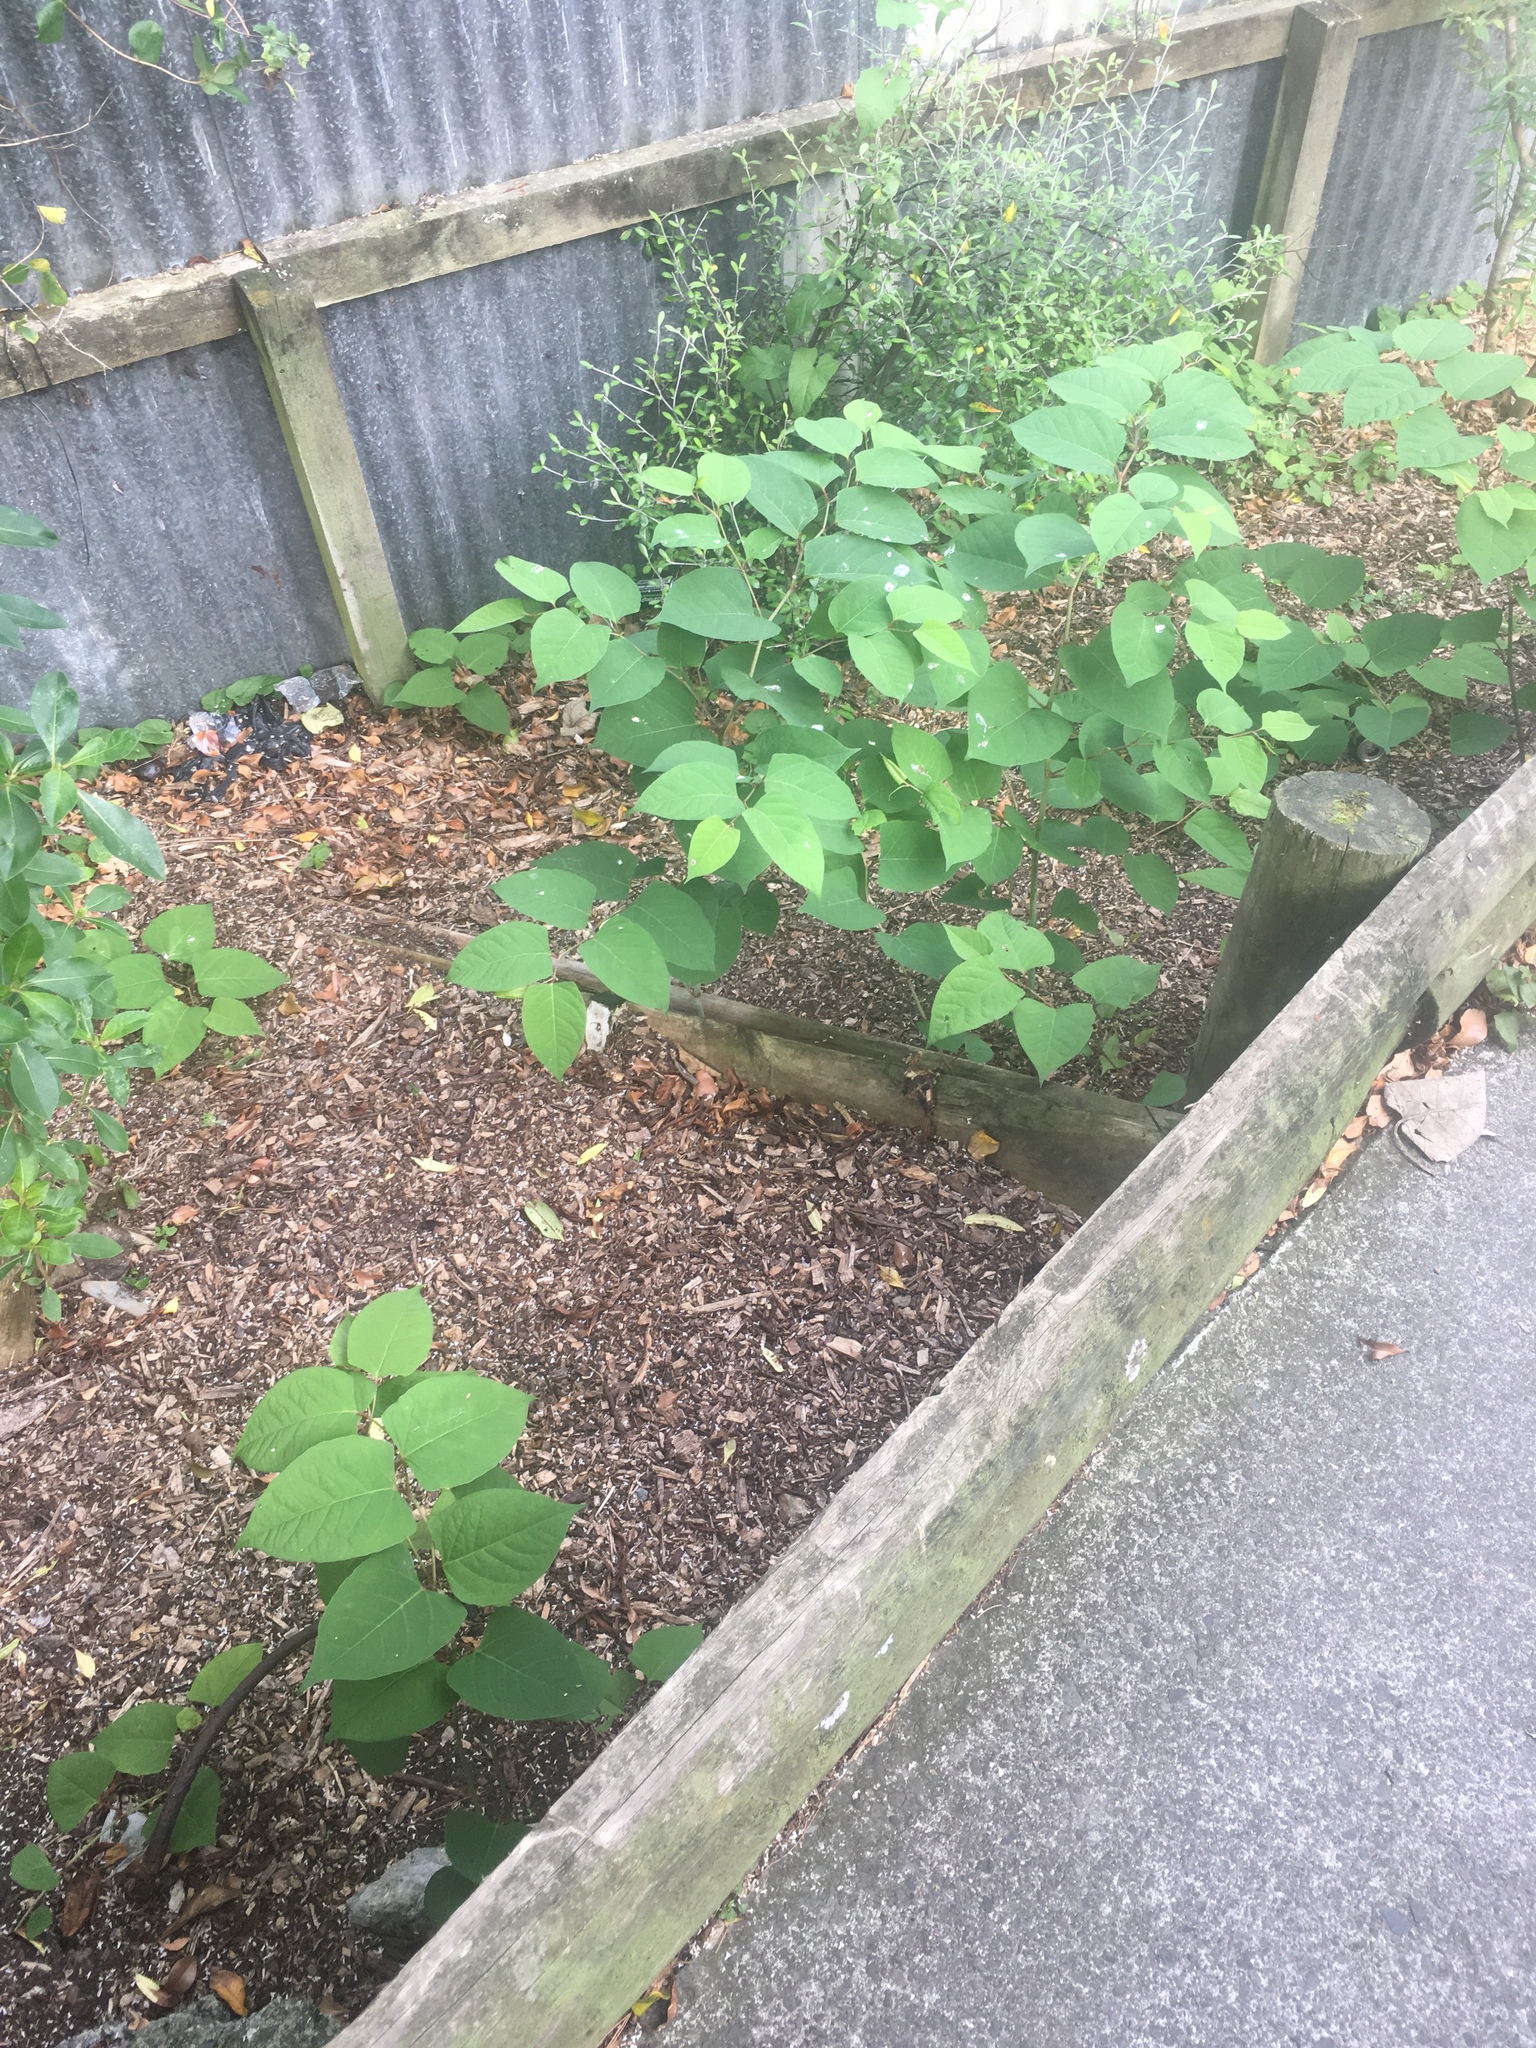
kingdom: Plantae
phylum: Tracheophyta
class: Magnoliopsida
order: Caryophyllales
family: Polygonaceae
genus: Reynoutria
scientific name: Reynoutria japonica
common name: Japanese knotweed
